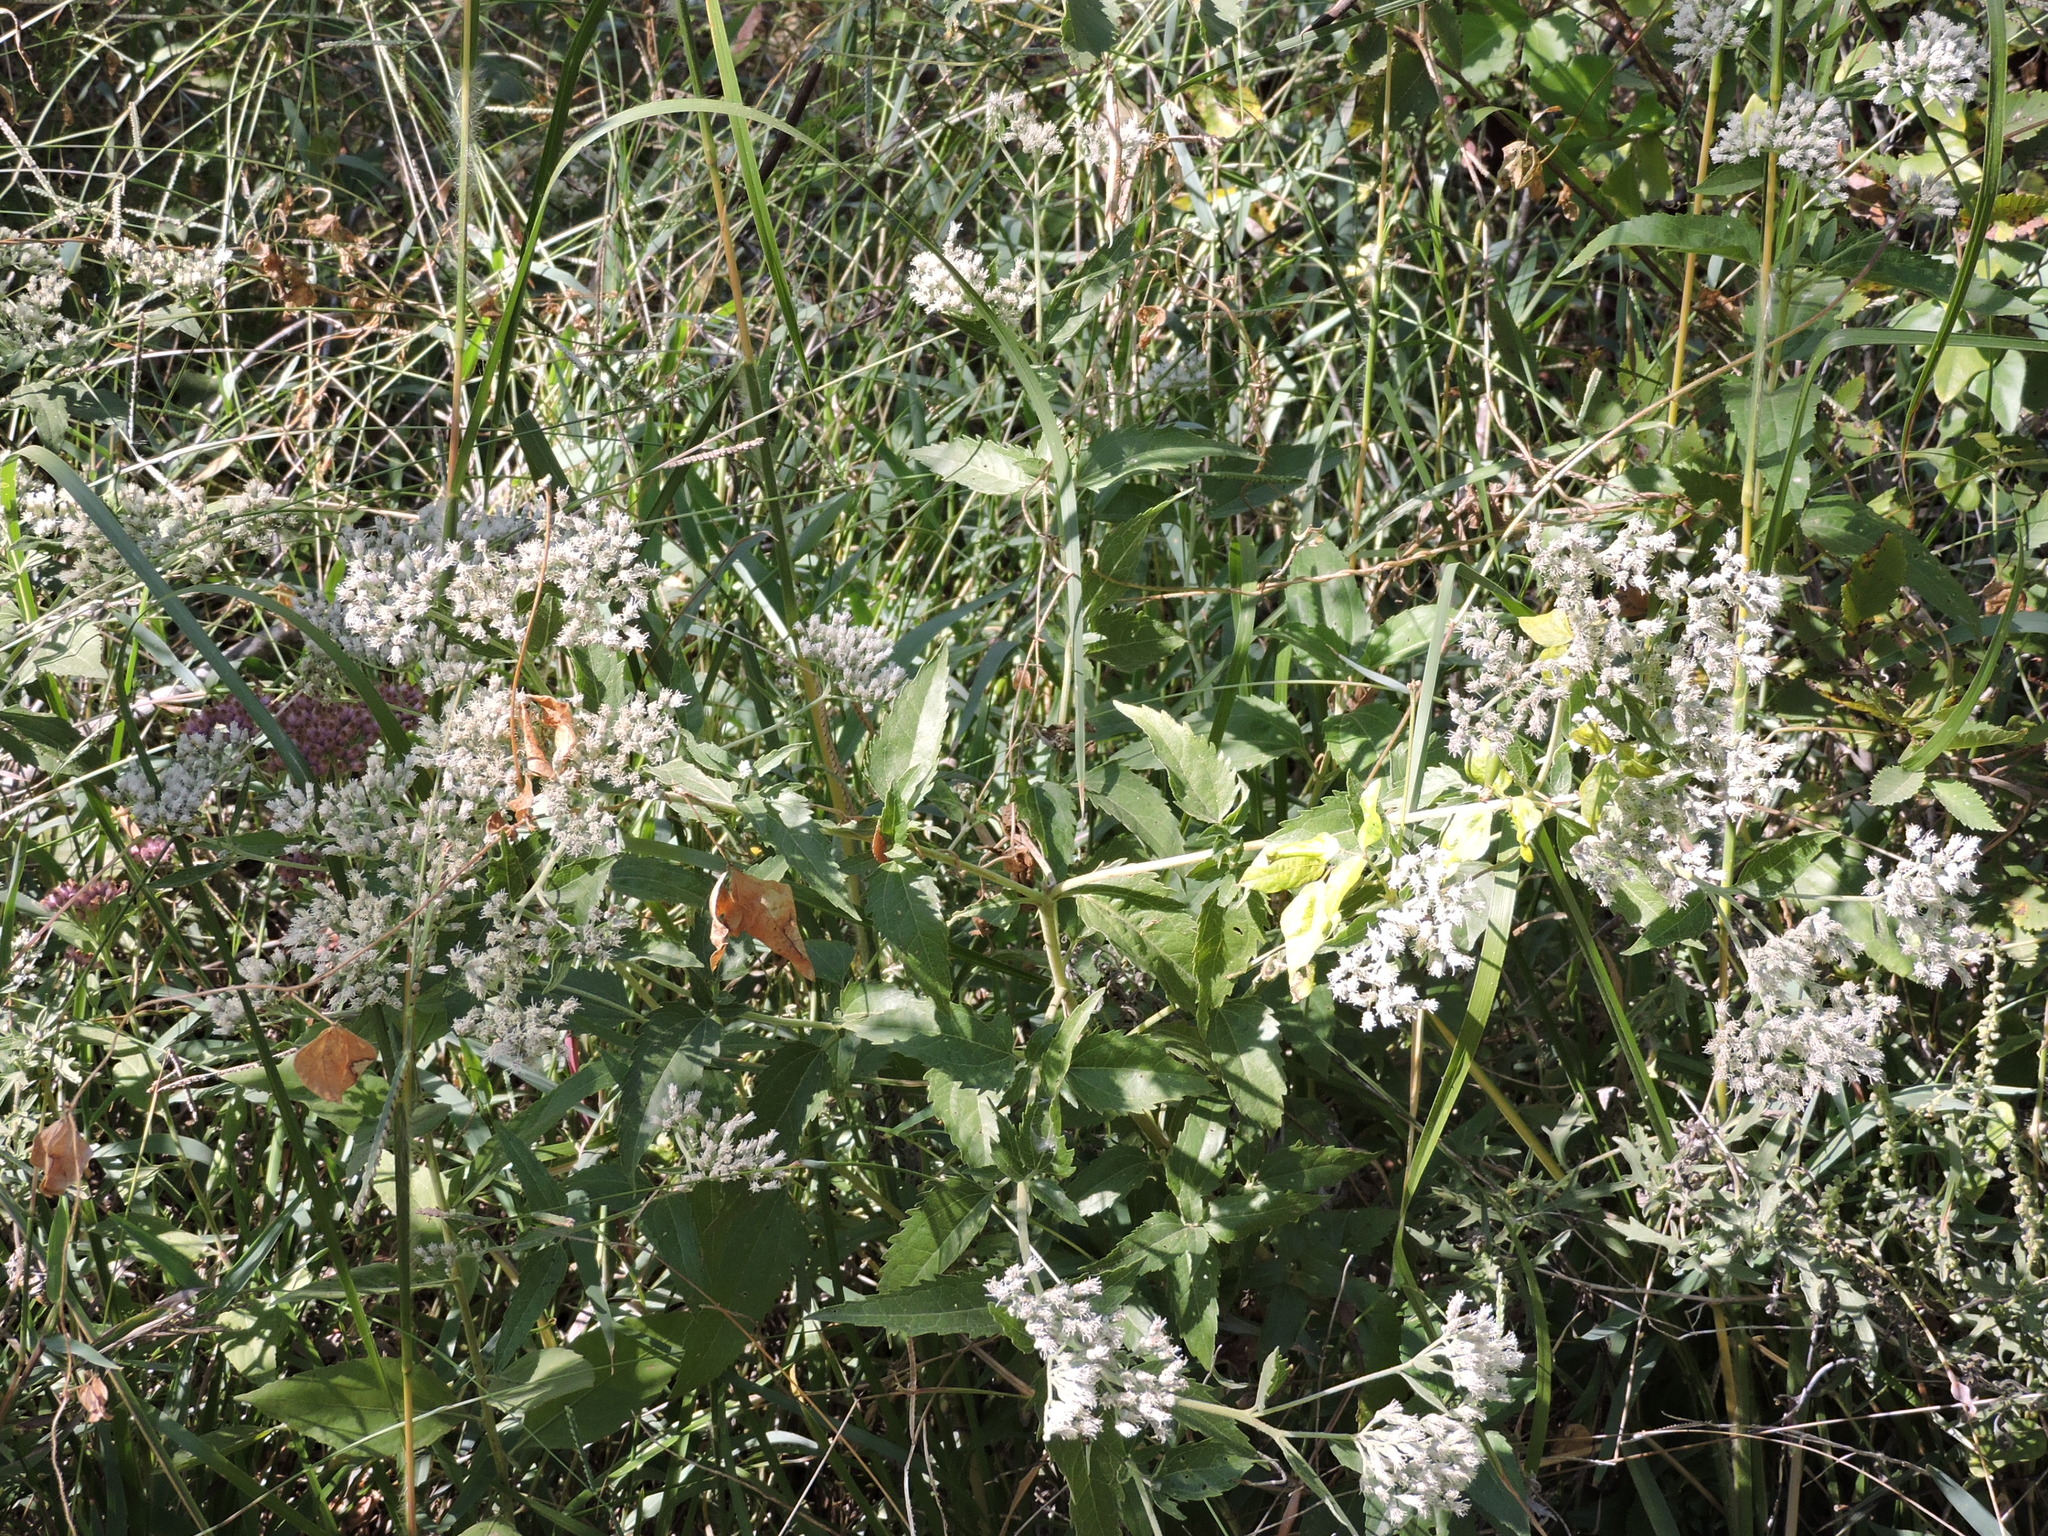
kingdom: Plantae
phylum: Tracheophyta
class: Magnoliopsida
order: Asterales
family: Asteraceae
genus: Eupatorium
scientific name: Eupatorium serotinum
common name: Late boneset
